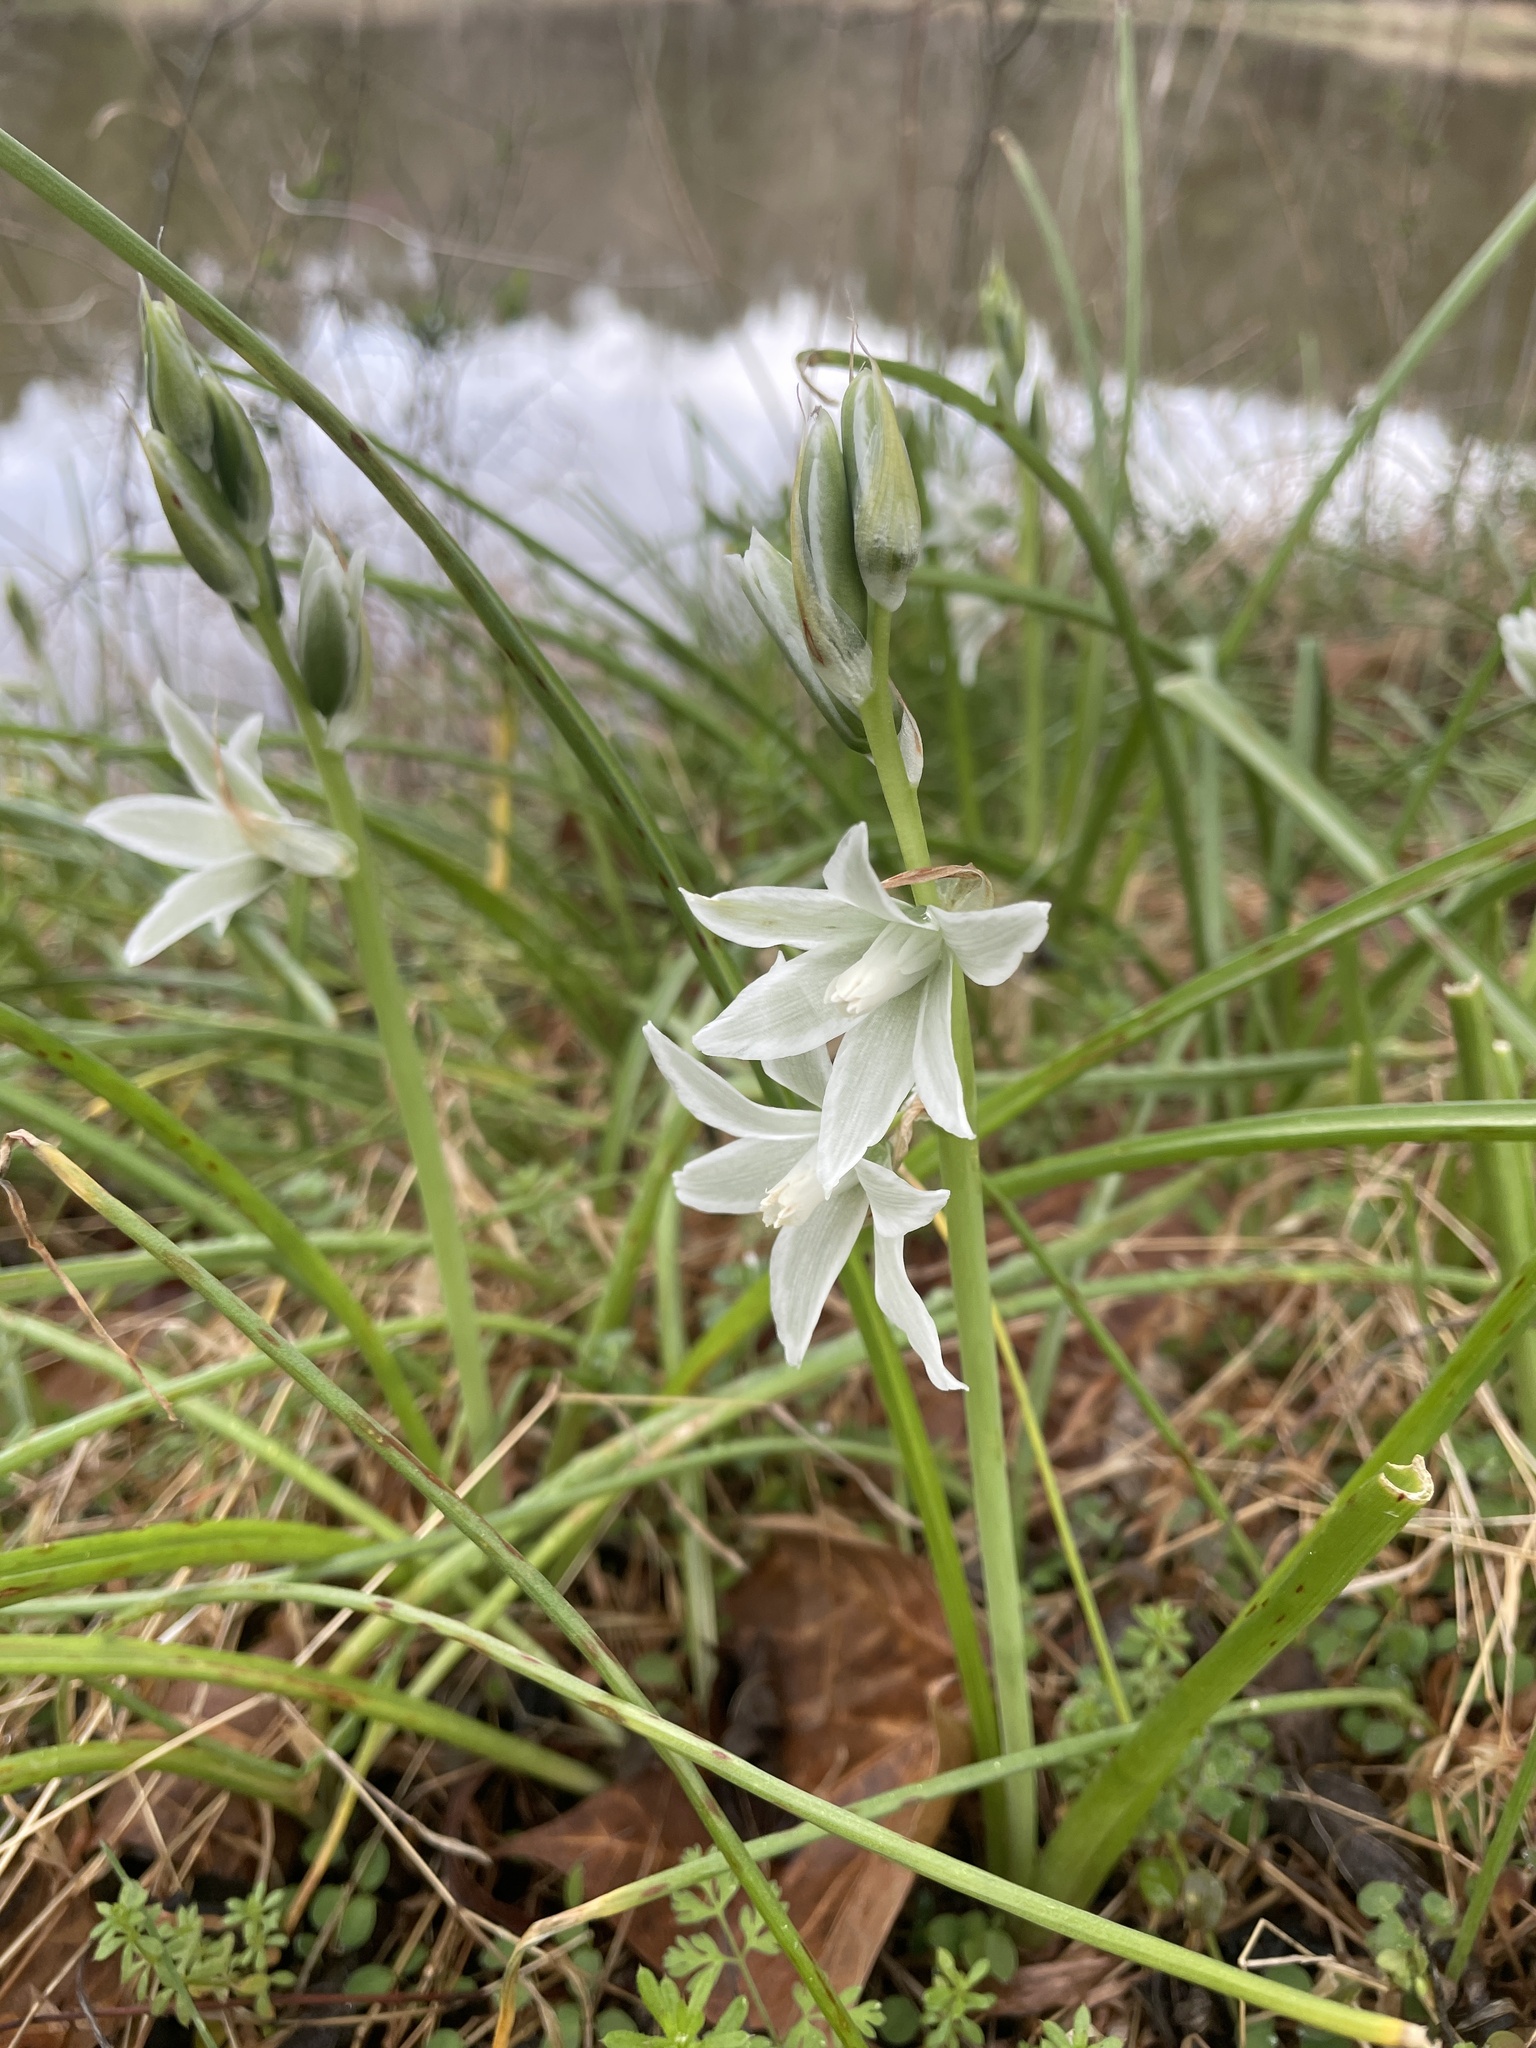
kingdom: Plantae
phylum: Tracheophyta
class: Liliopsida
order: Asparagales
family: Asparagaceae
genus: Ornithogalum
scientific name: Ornithogalum nutans
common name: Drooping star-of-bethlehem
